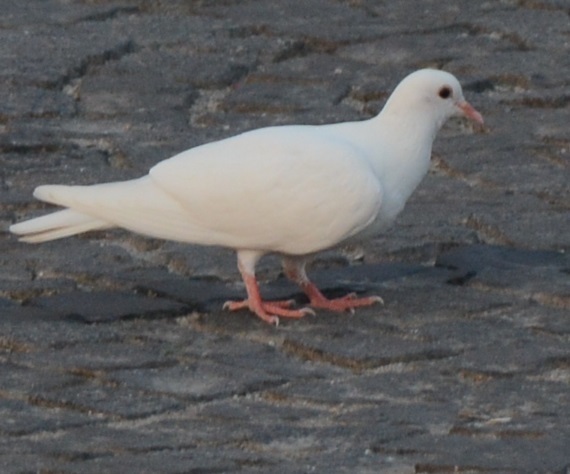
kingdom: Animalia
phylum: Chordata
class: Aves
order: Columbiformes
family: Columbidae
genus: Columba
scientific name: Columba livia
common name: Rock pigeon
